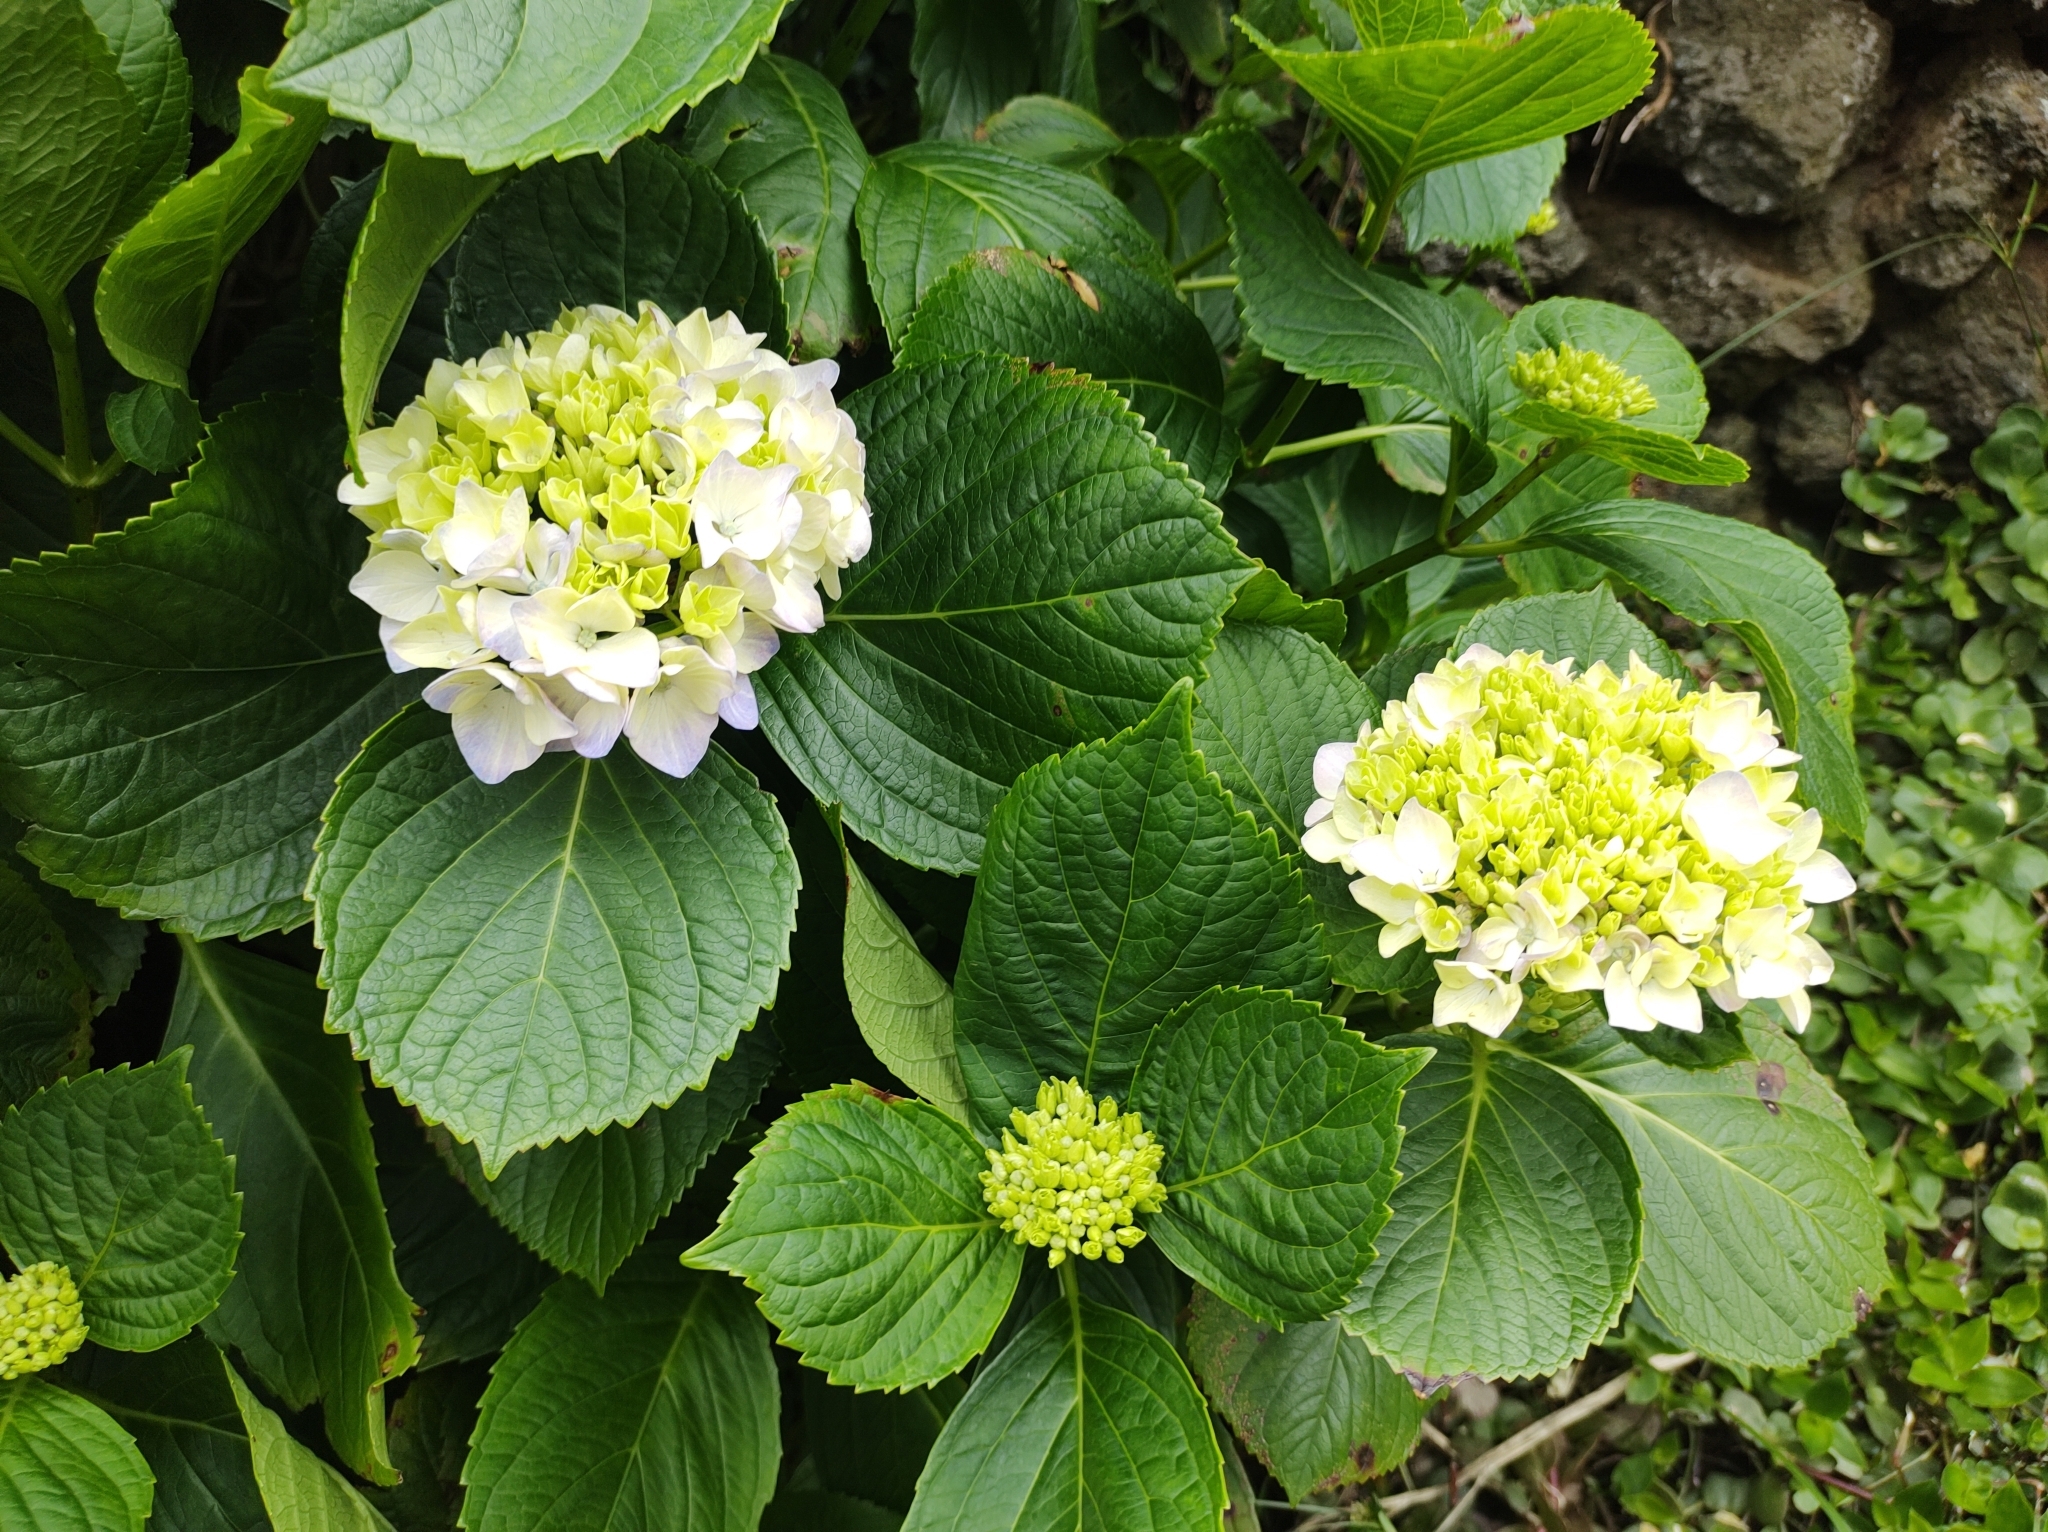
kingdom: Plantae
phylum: Tracheophyta
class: Magnoliopsida
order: Cornales
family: Hydrangeaceae
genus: Hydrangea
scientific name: Hydrangea macrophylla
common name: Hydrangea
